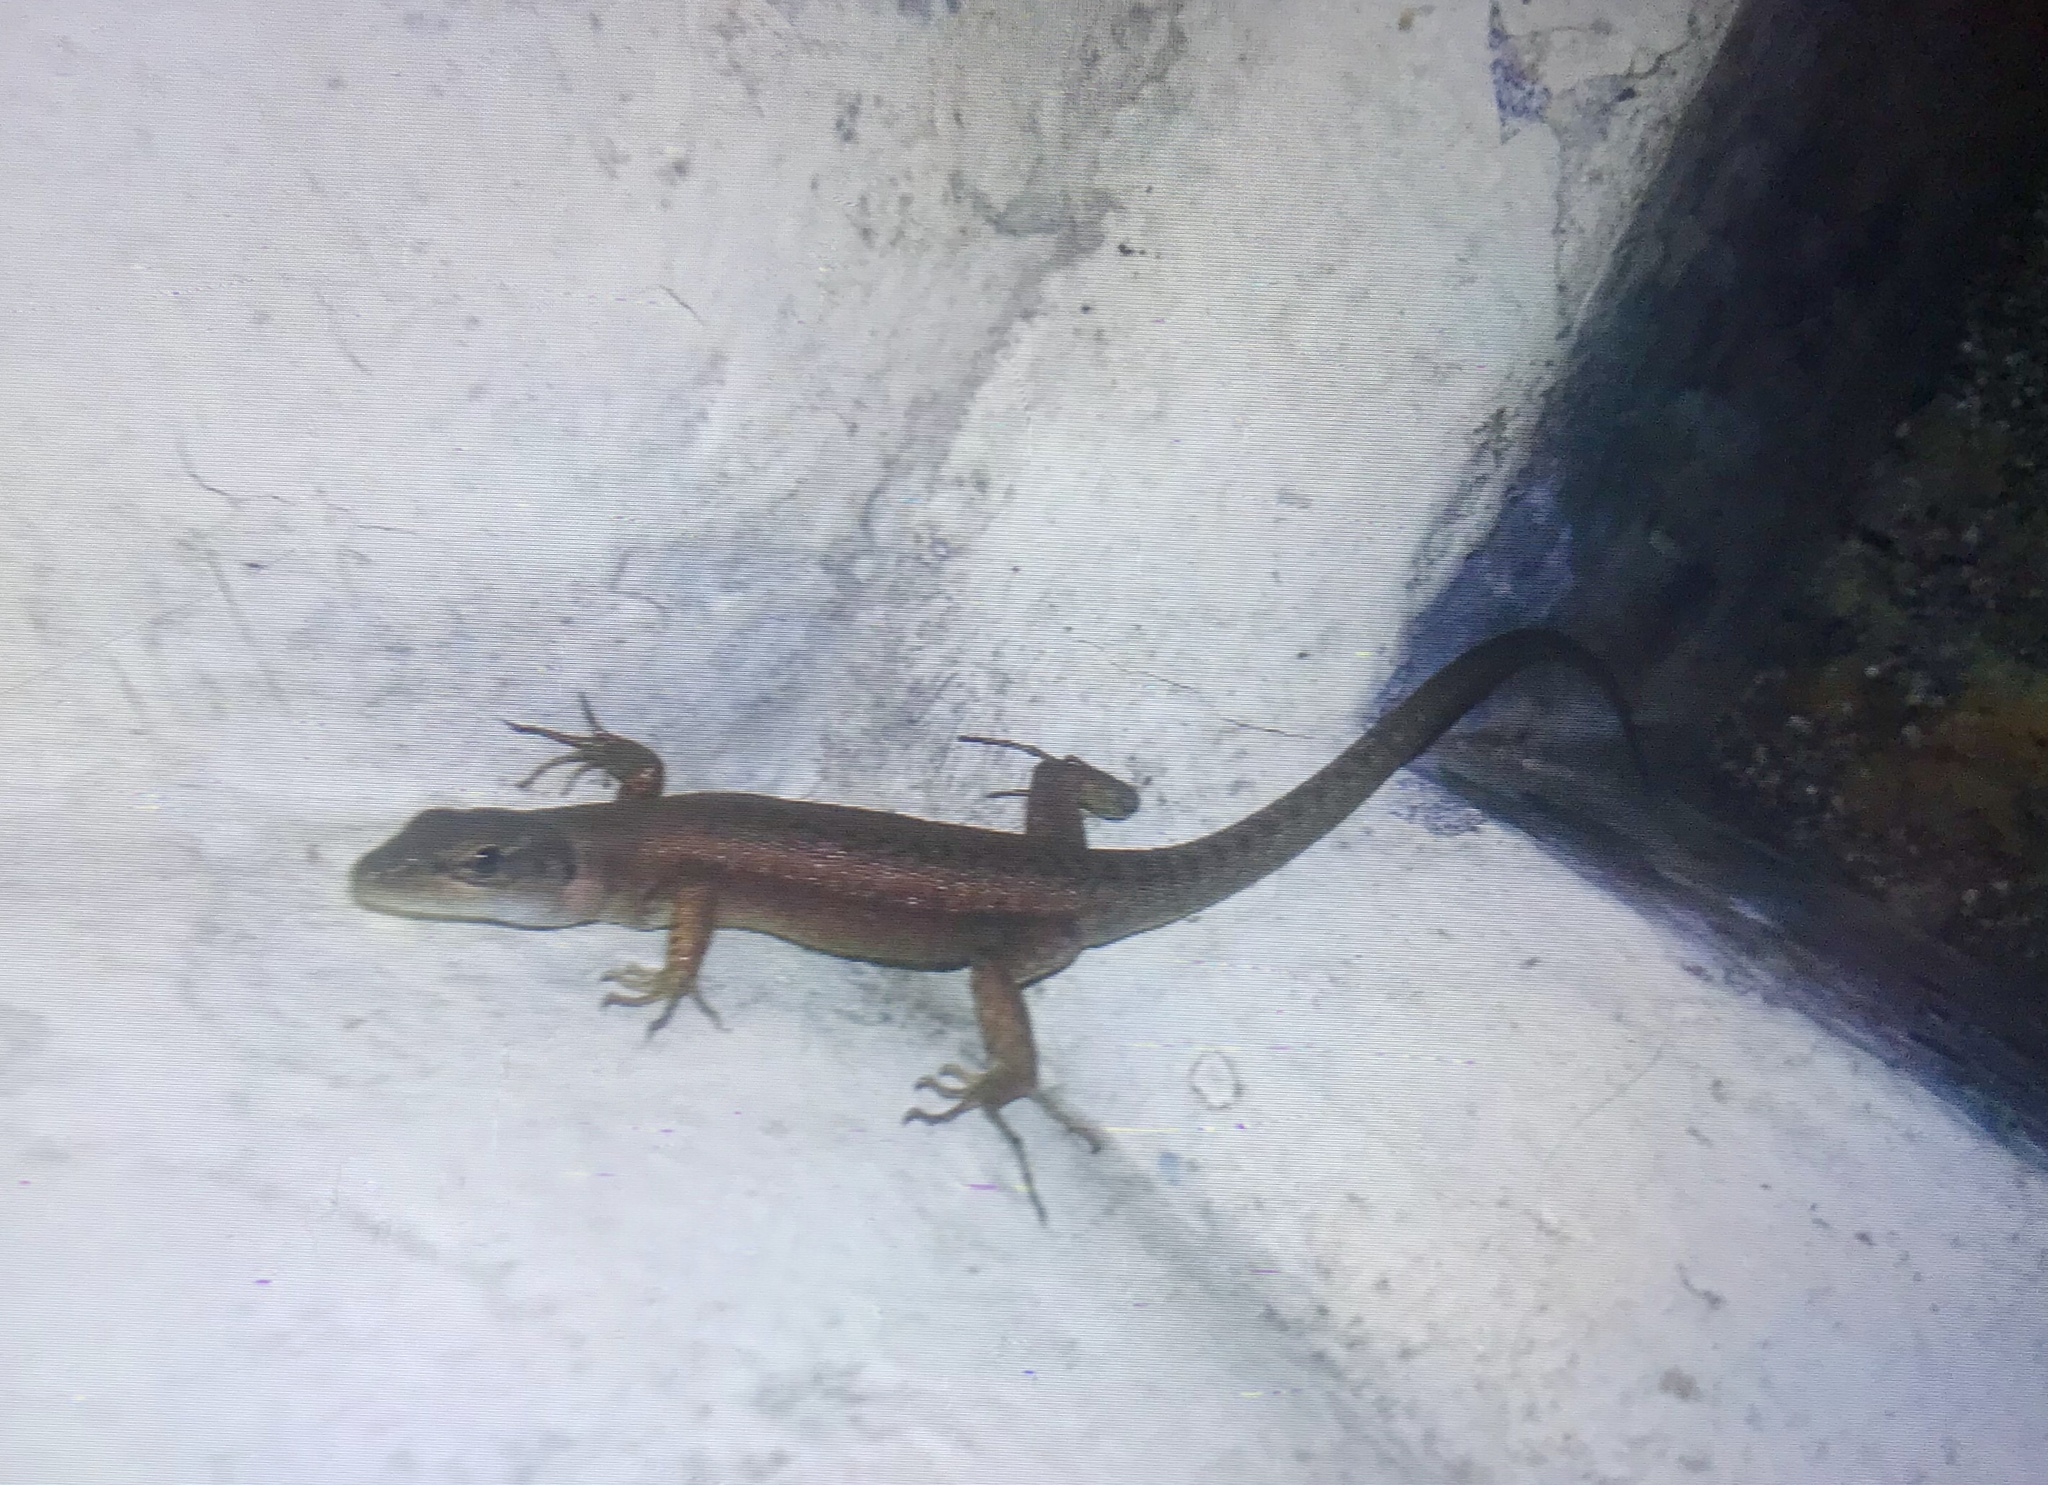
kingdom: Animalia
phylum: Chordata
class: Squamata
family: Lacertidae
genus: Phoenicolacerta
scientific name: Phoenicolacerta laevis
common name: Lebanon lizard
